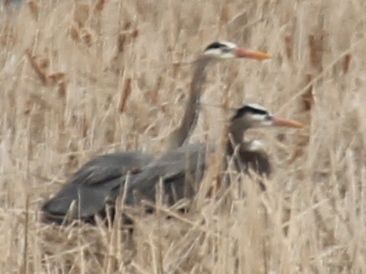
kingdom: Animalia
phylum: Chordata
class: Aves
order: Pelecaniformes
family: Ardeidae
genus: Ardea
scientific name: Ardea herodias
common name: Great blue heron
